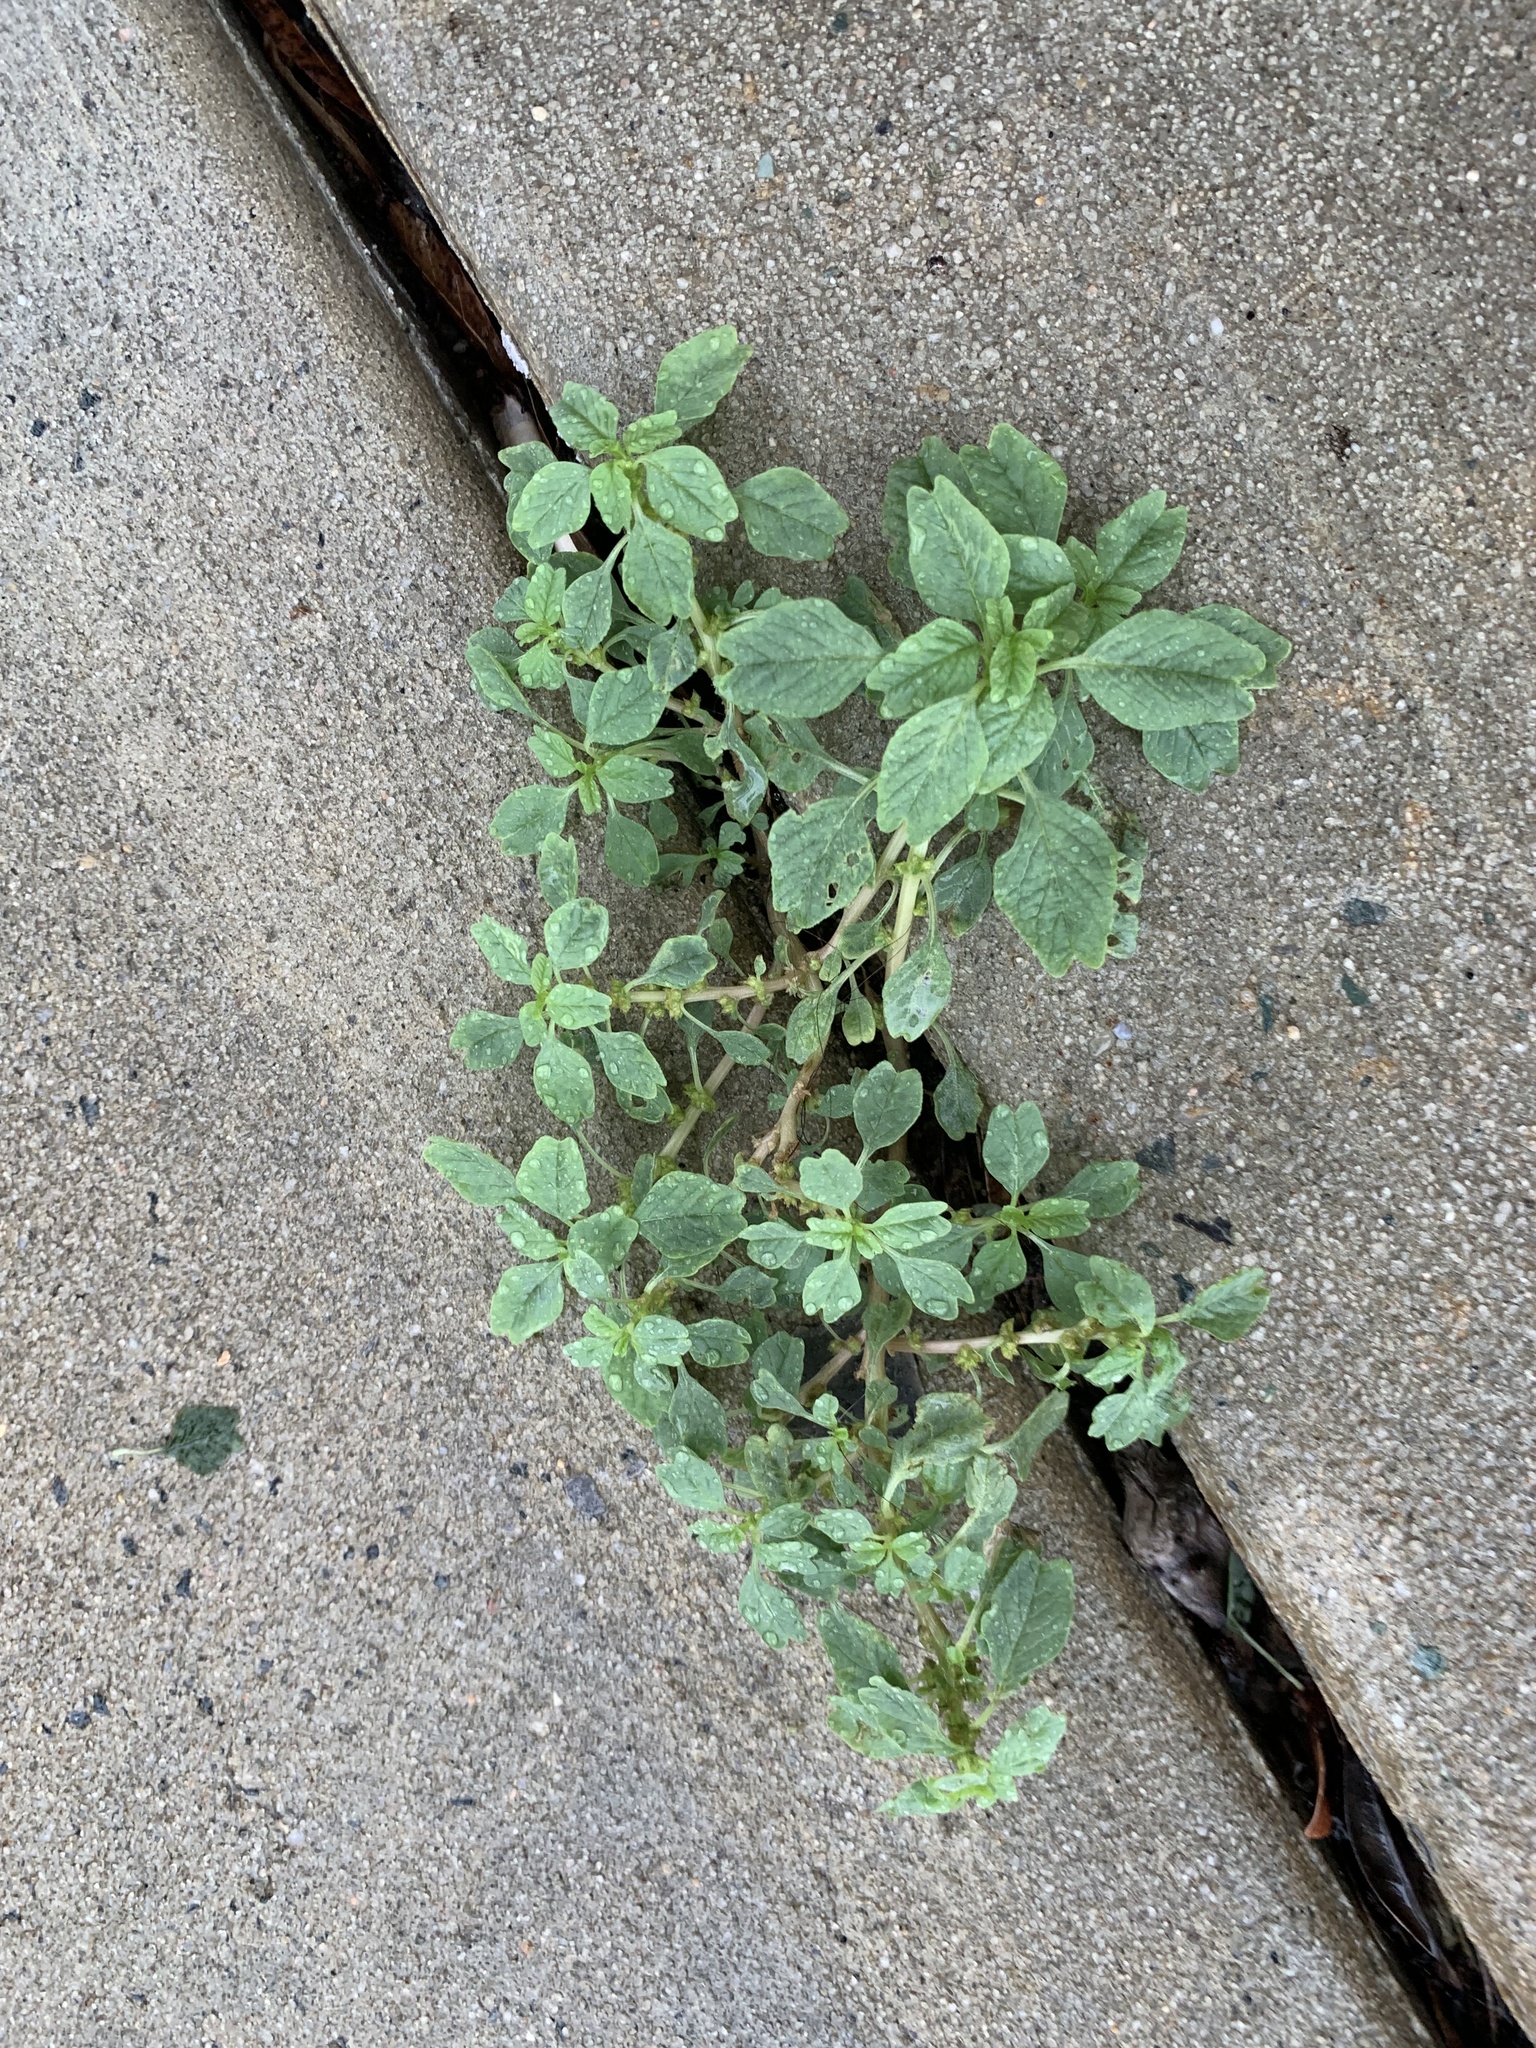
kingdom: Plantae
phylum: Tracheophyta
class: Magnoliopsida
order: Caryophyllales
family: Amaranthaceae
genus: Amaranthus
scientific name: Amaranthus blitum
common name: Purple amaranth
